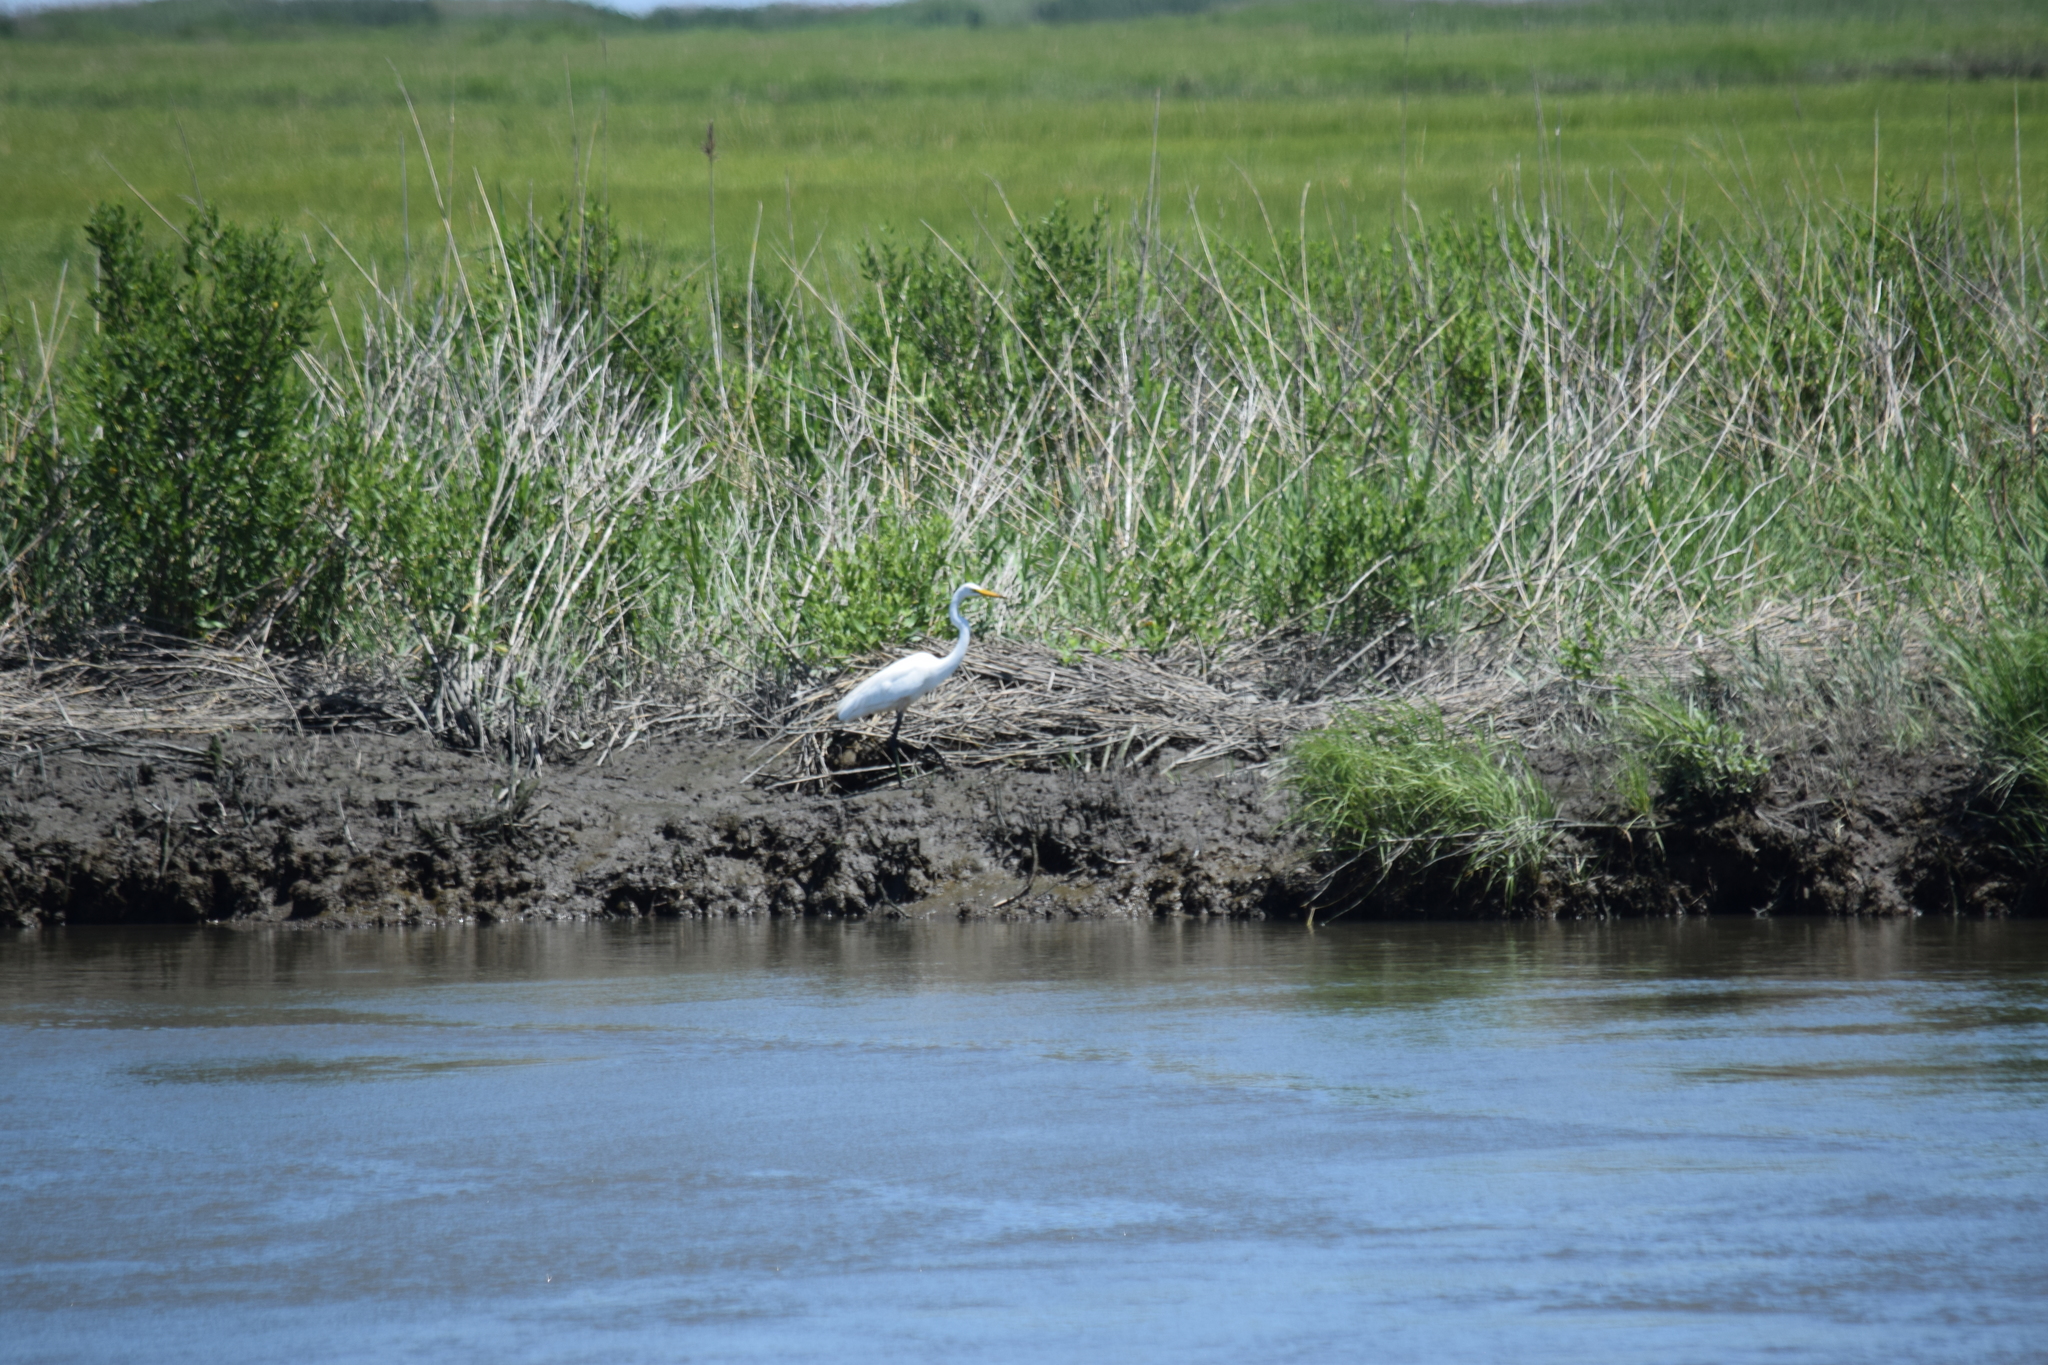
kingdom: Animalia
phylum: Chordata
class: Aves
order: Pelecaniformes
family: Ardeidae
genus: Ardea
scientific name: Ardea alba
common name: Great egret
